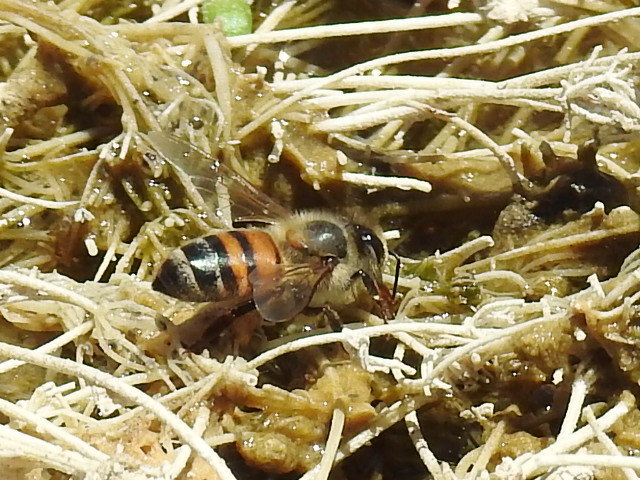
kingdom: Animalia
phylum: Arthropoda
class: Insecta
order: Hymenoptera
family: Apidae
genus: Apis
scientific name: Apis mellifera
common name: Honey bee
